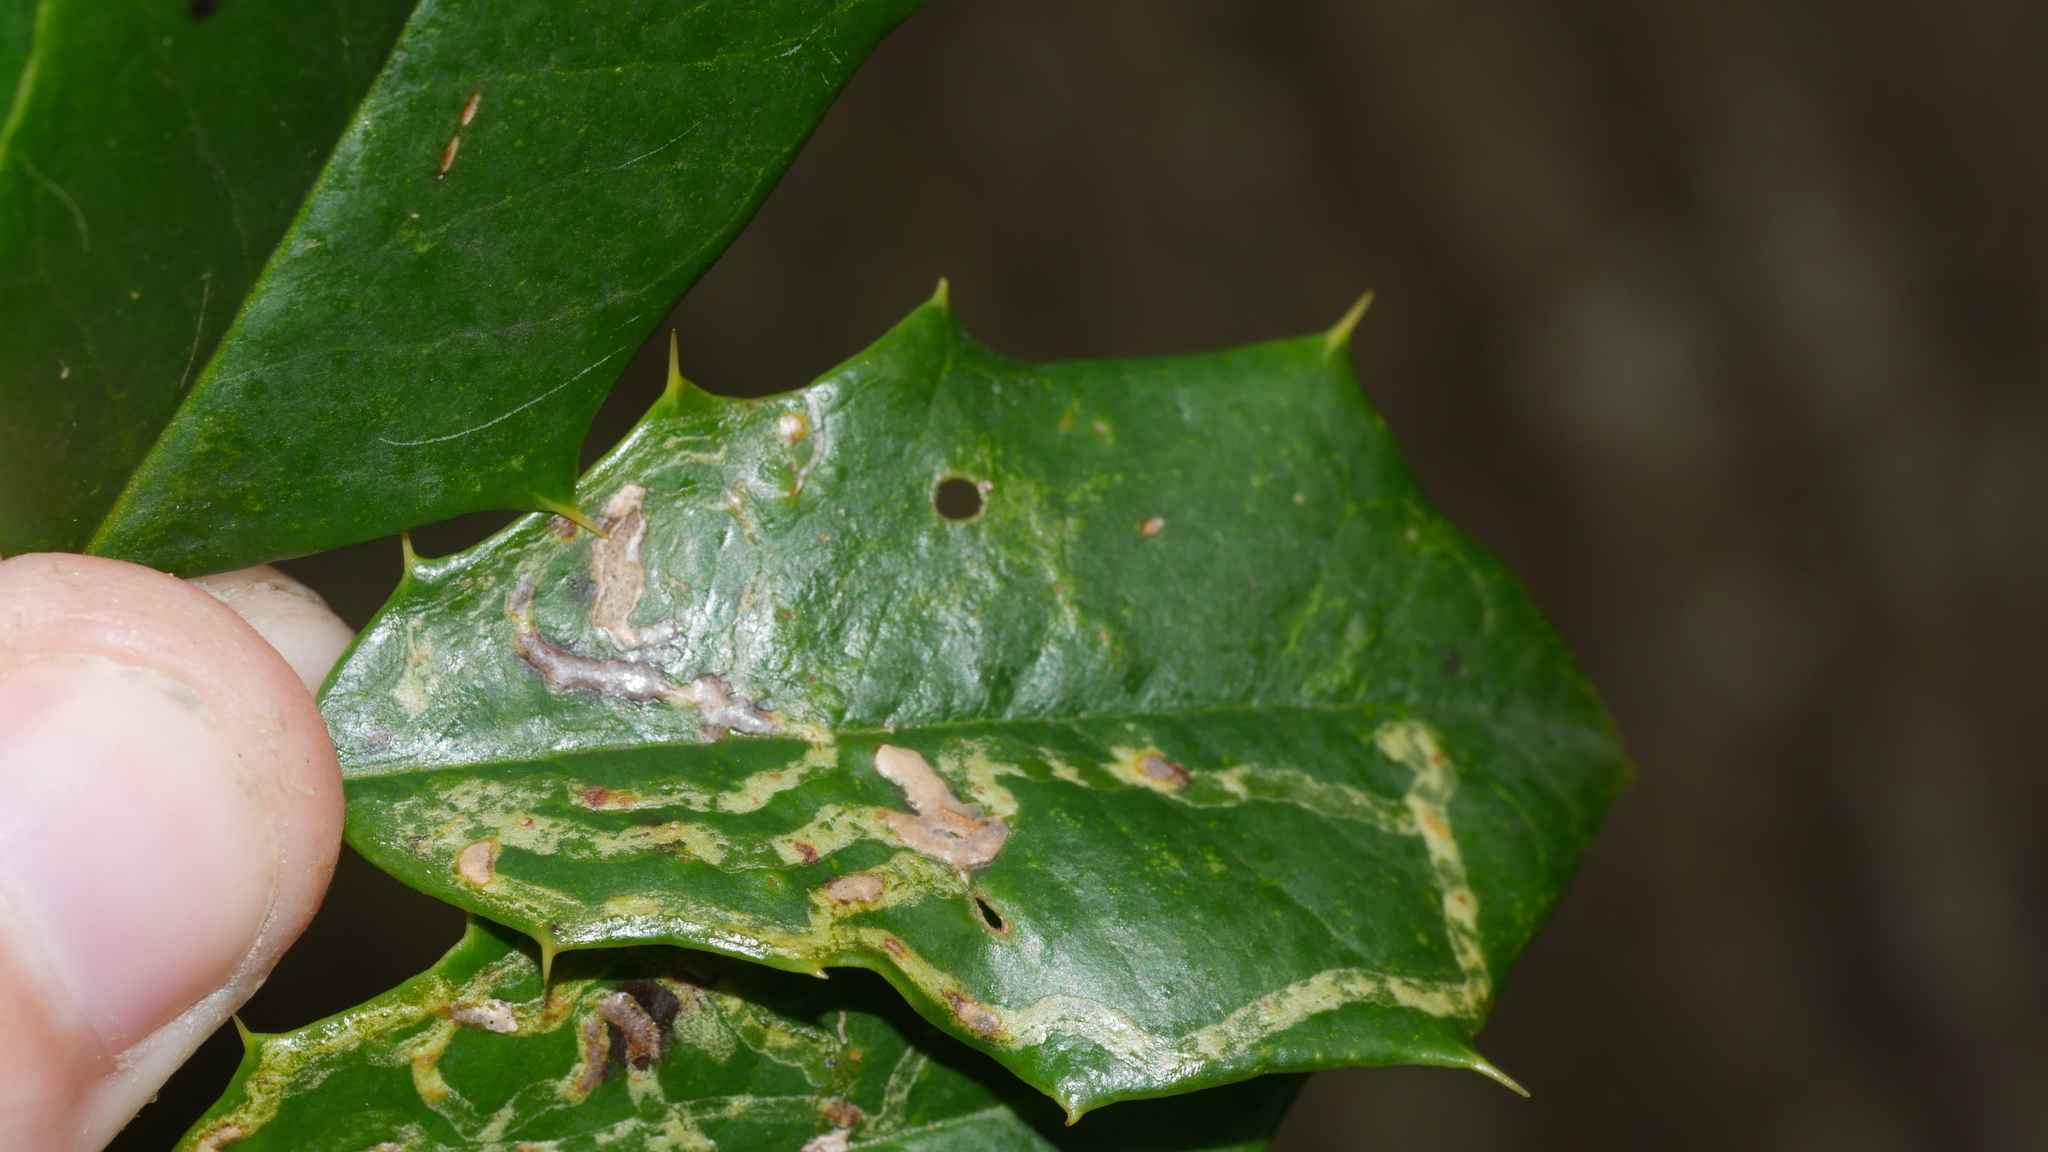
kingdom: Animalia
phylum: Arthropoda
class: Insecta
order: Diptera
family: Agromyzidae
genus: Phytomyza
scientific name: Phytomyza opacae
